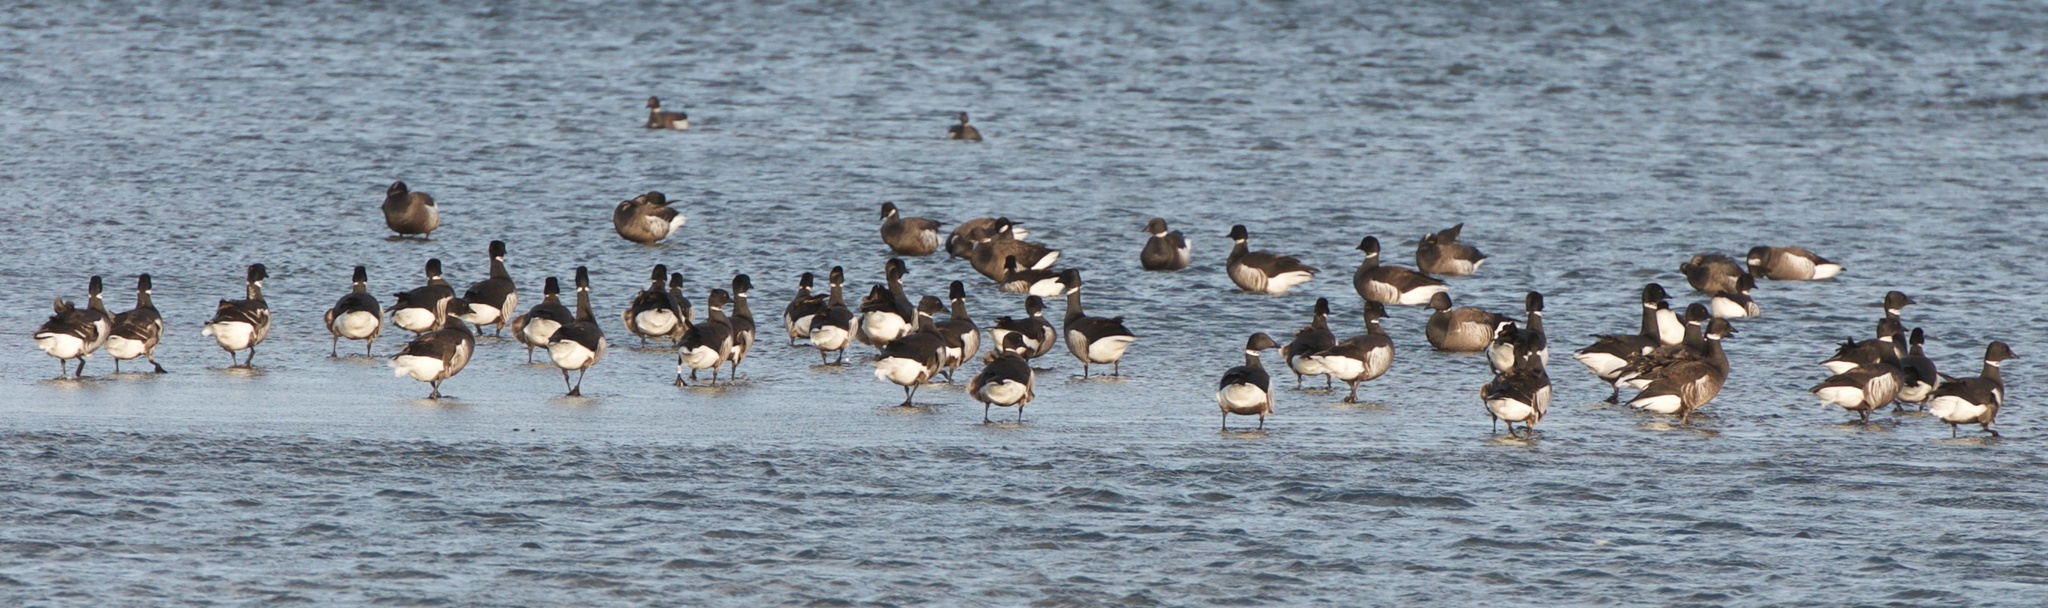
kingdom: Animalia
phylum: Chordata
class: Aves
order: Anseriformes
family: Anatidae
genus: Branta
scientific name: Branta bernicla
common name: Brant goose
